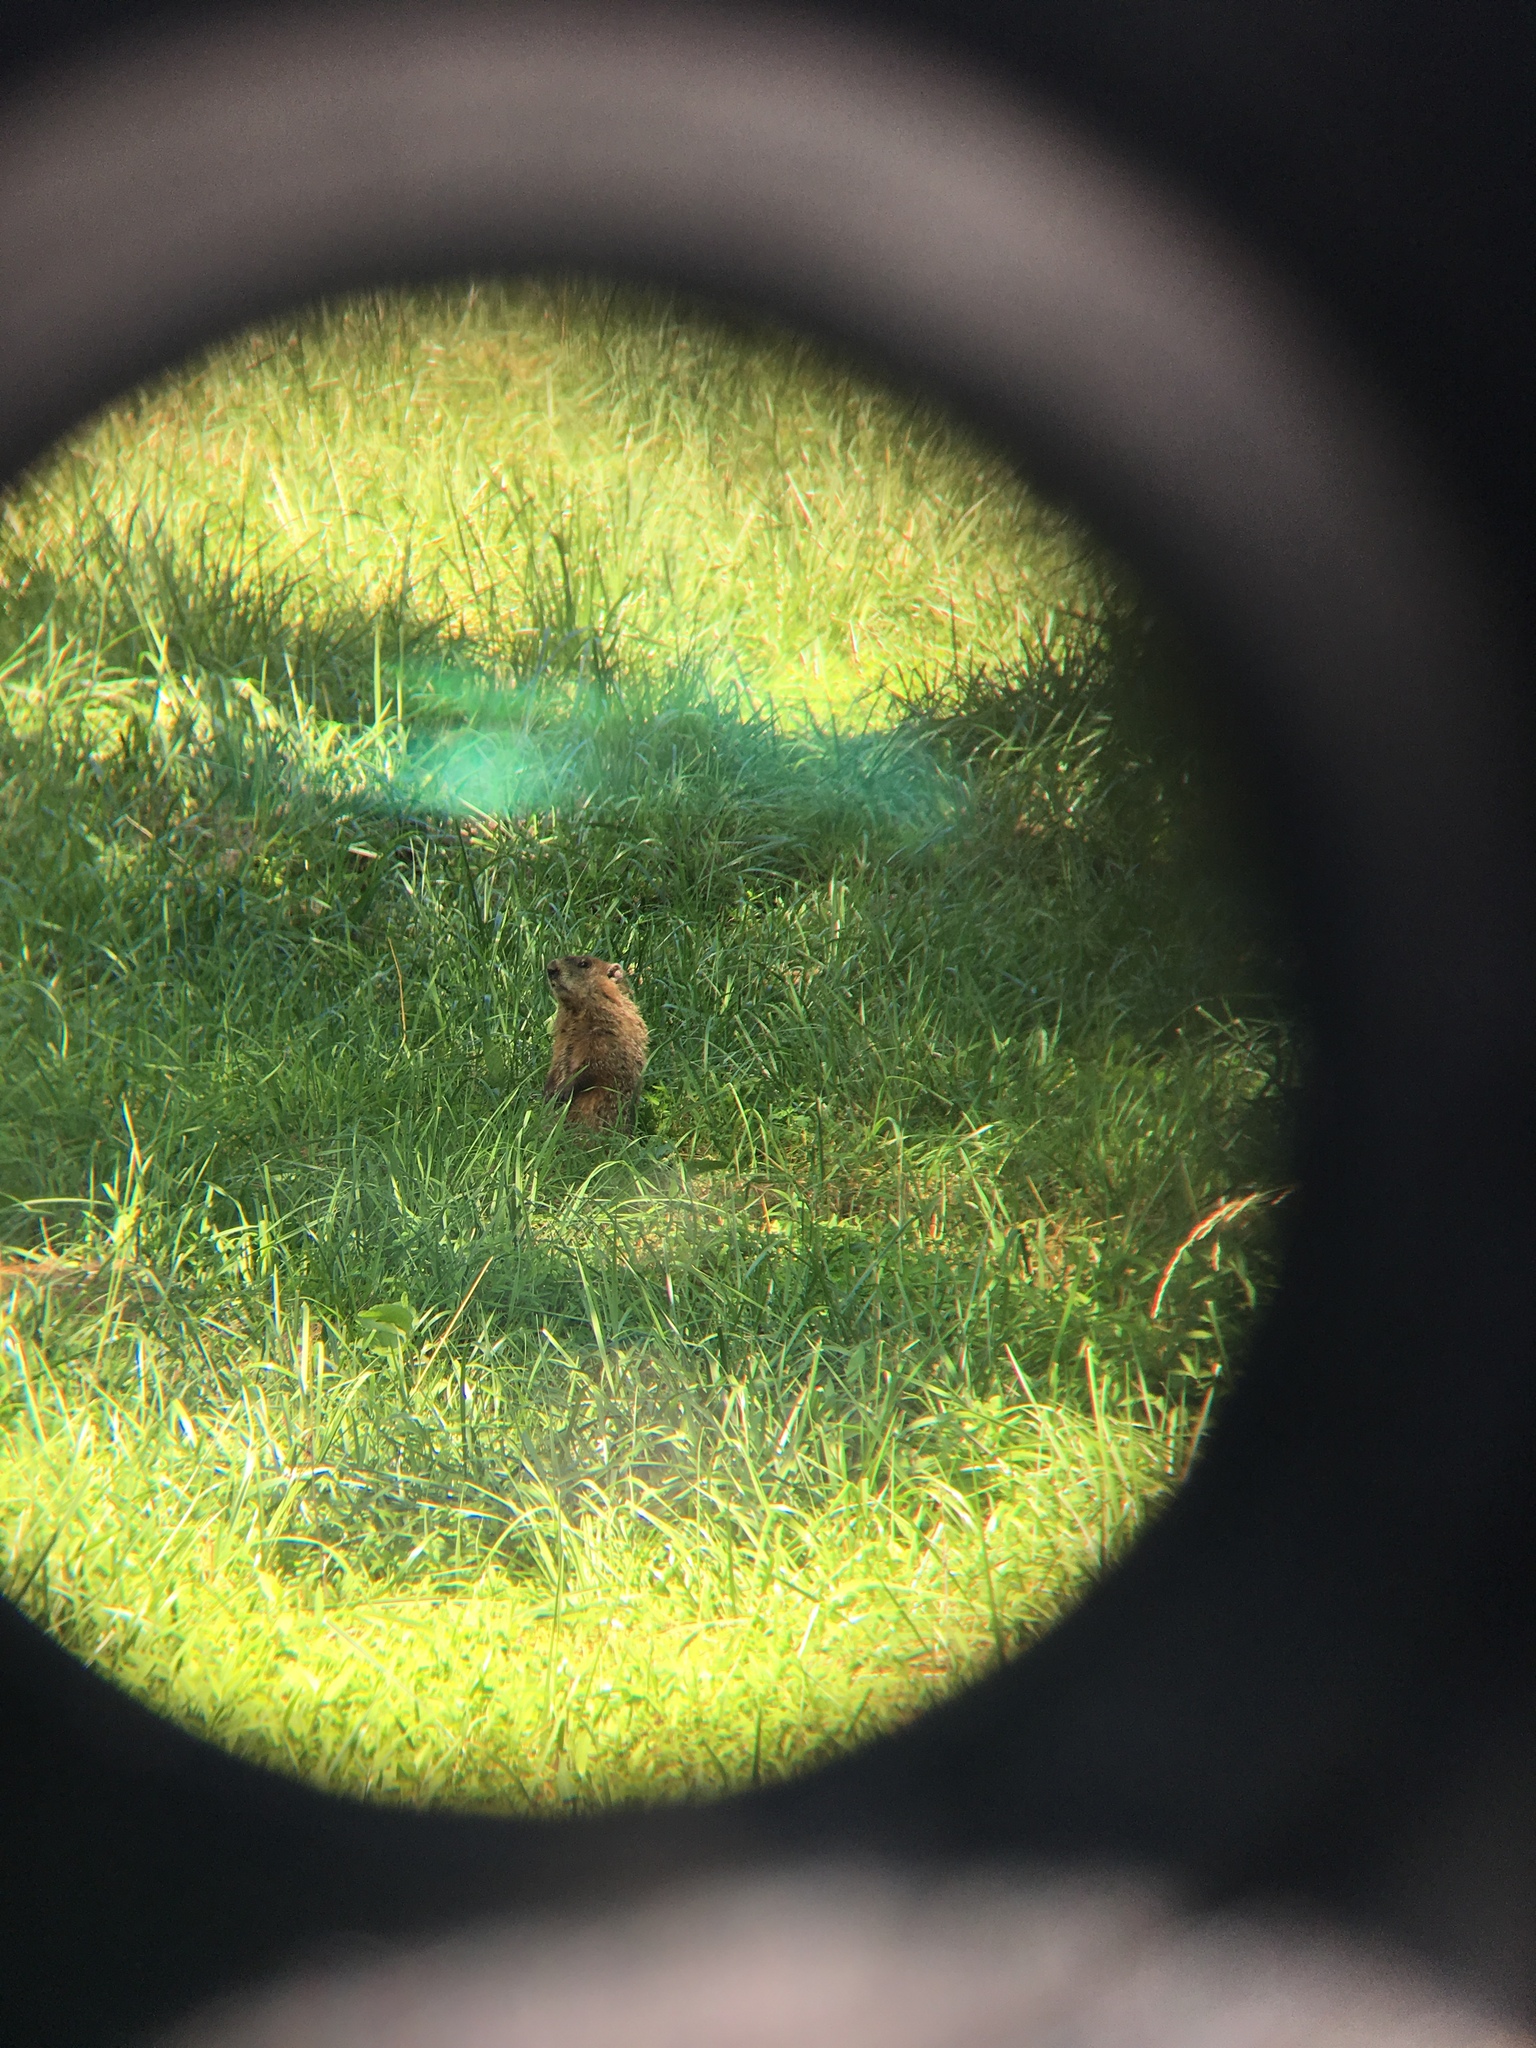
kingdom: Animalia
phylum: Chordata
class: Mammalia
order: Rodentia
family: Sciuridae
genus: Marmota
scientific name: Marmota monax
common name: Groundhog
